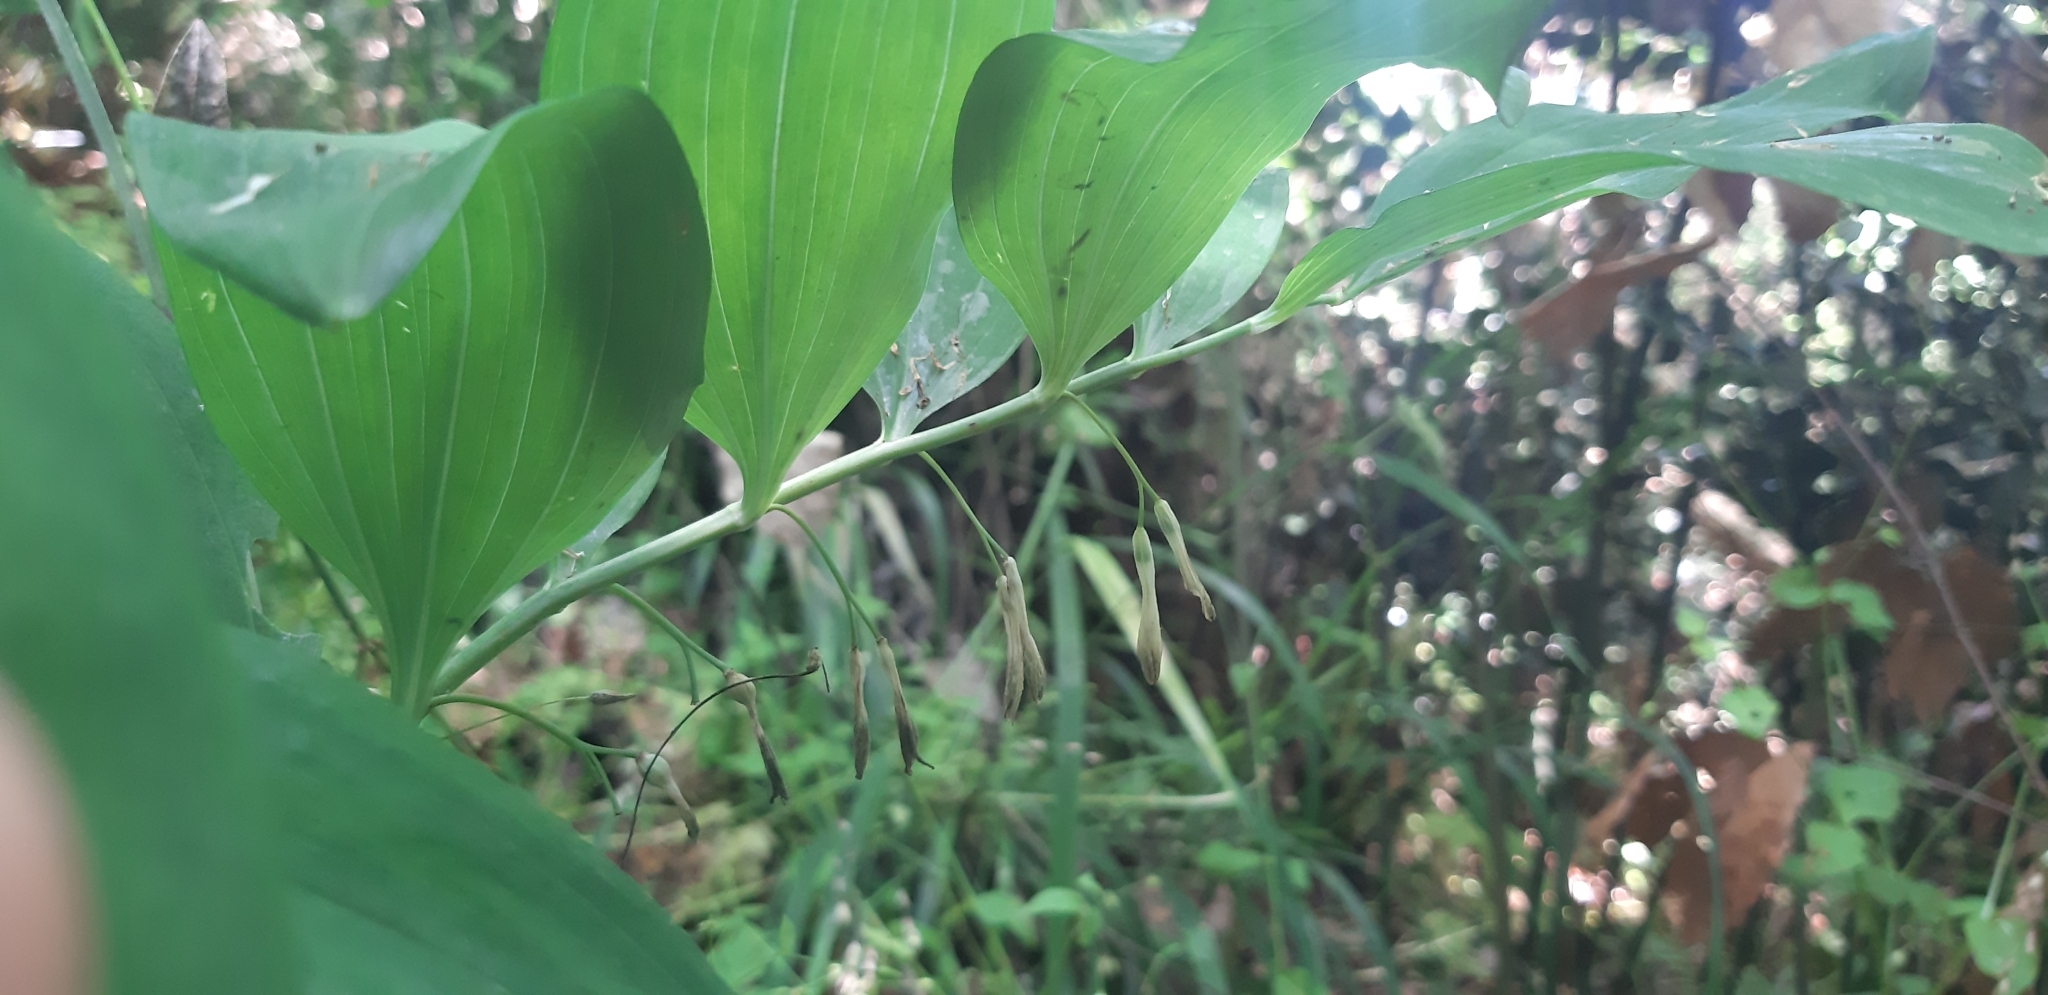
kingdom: Plantae
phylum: Tracheophyta
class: Liliopsida
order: Asparagales
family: Asparagaceae
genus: Polygonatum
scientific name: Polygonatum multiflorum
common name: Solomon's-seal
